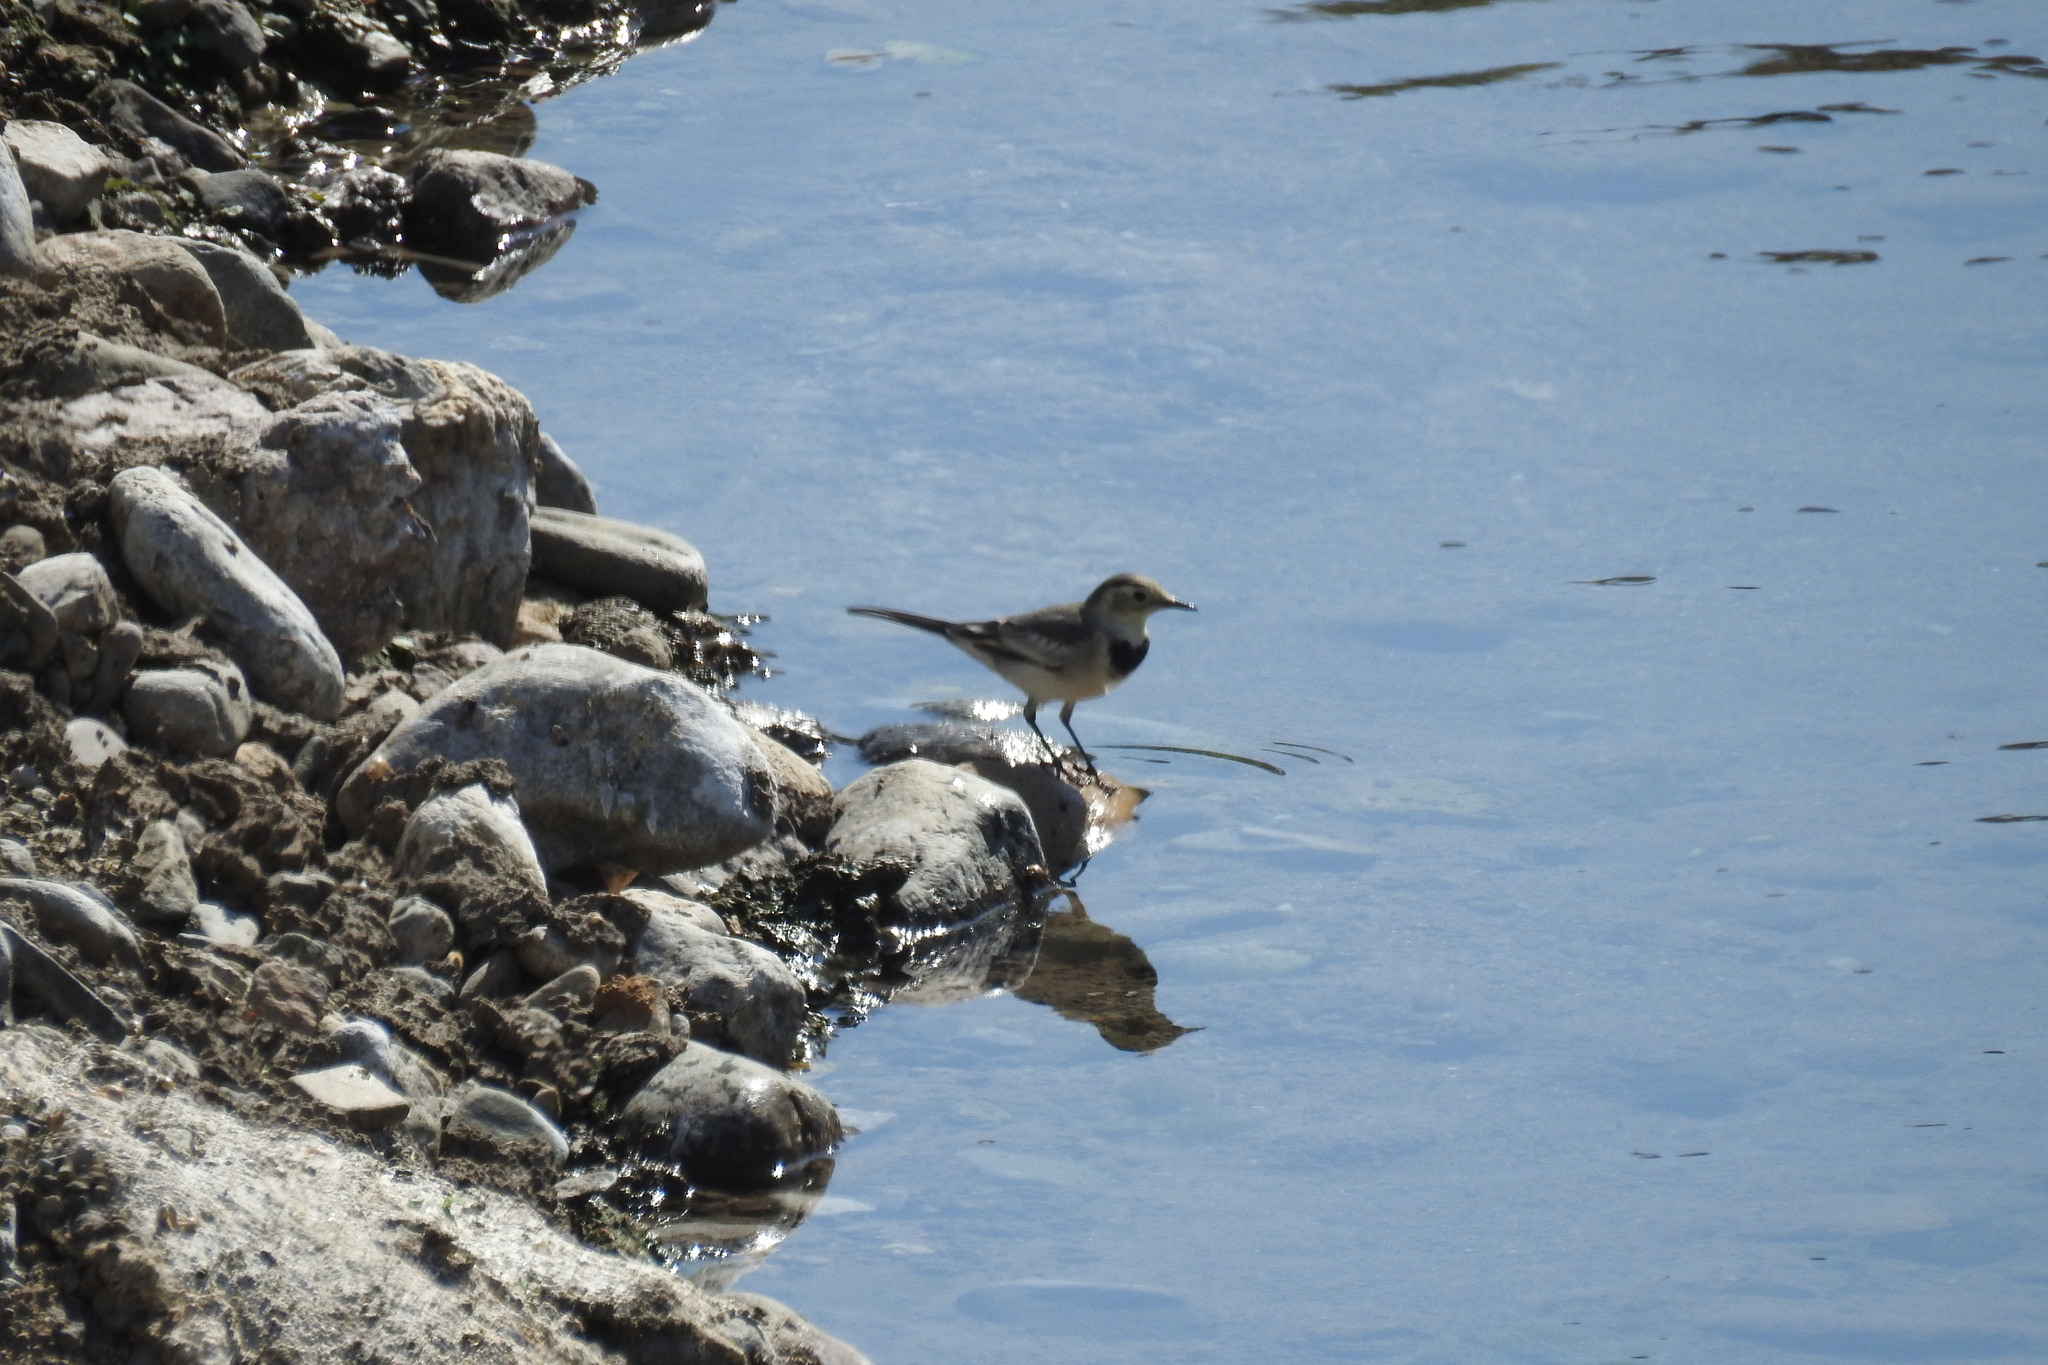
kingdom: Animalia
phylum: Chordata
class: Aves
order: Passeriformes
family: Motacillidae
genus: Motacilla
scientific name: Motacilla alba
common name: White wagtail
